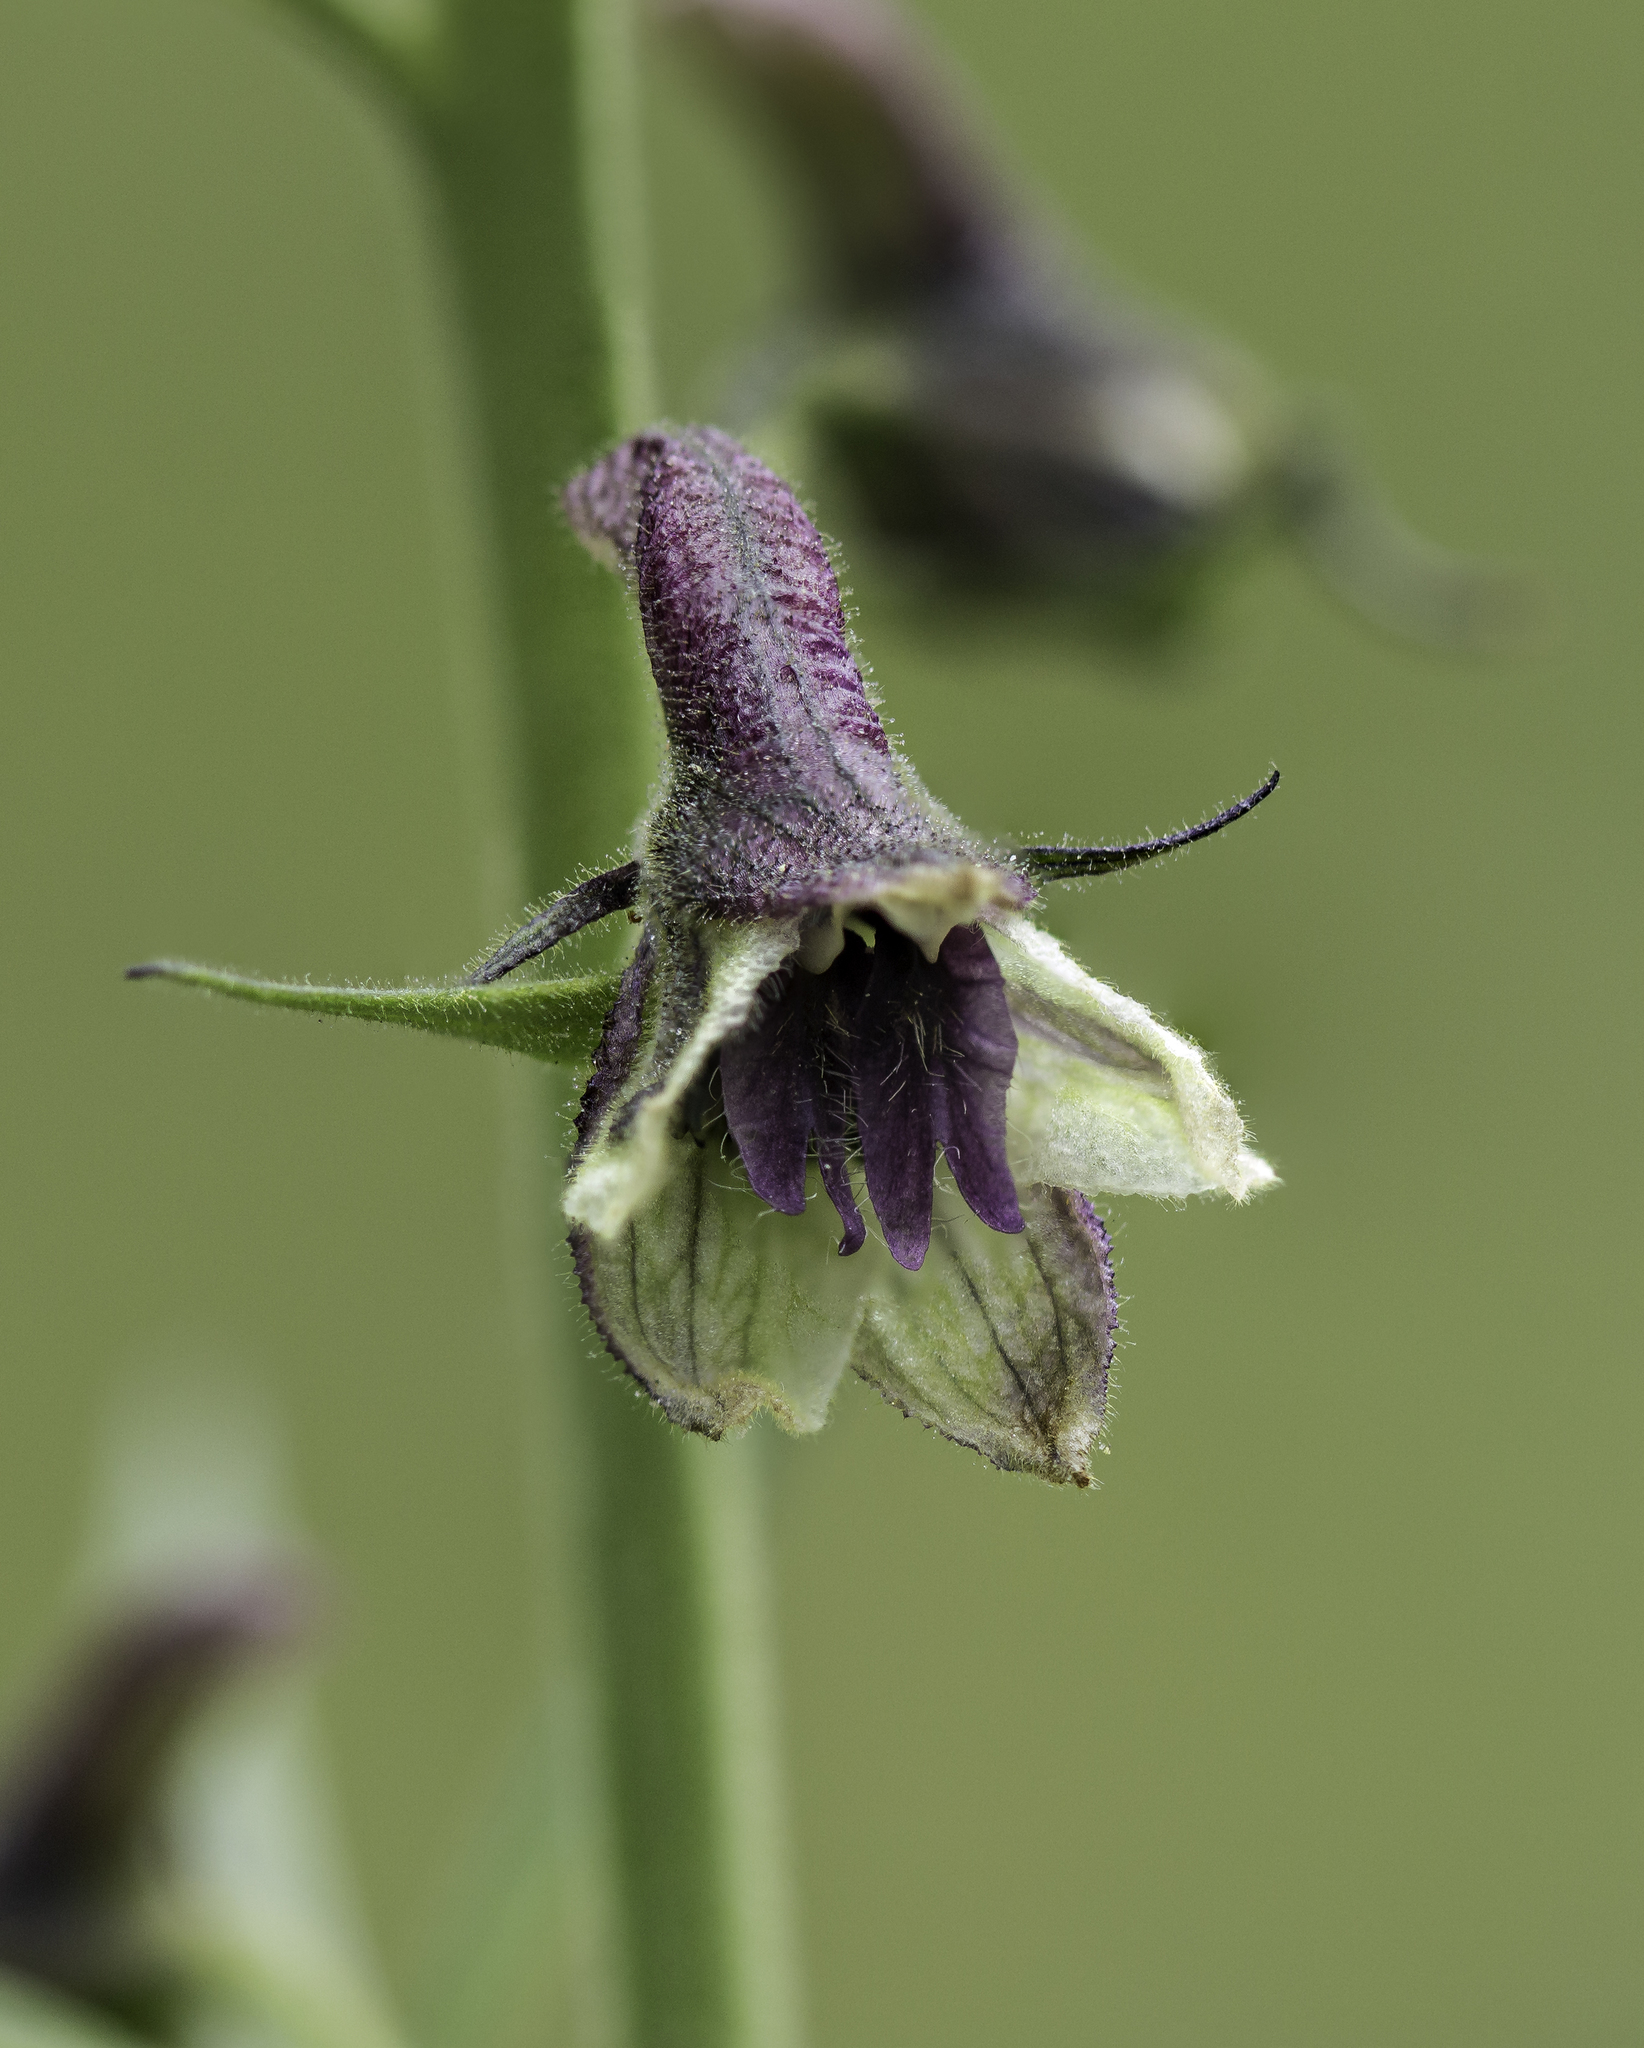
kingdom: Plantae
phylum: Tracheophyta
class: Magnoliopsida
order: Ranunculales
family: Ranunculaceae
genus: Delphinium
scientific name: Delphinium sapellonis
